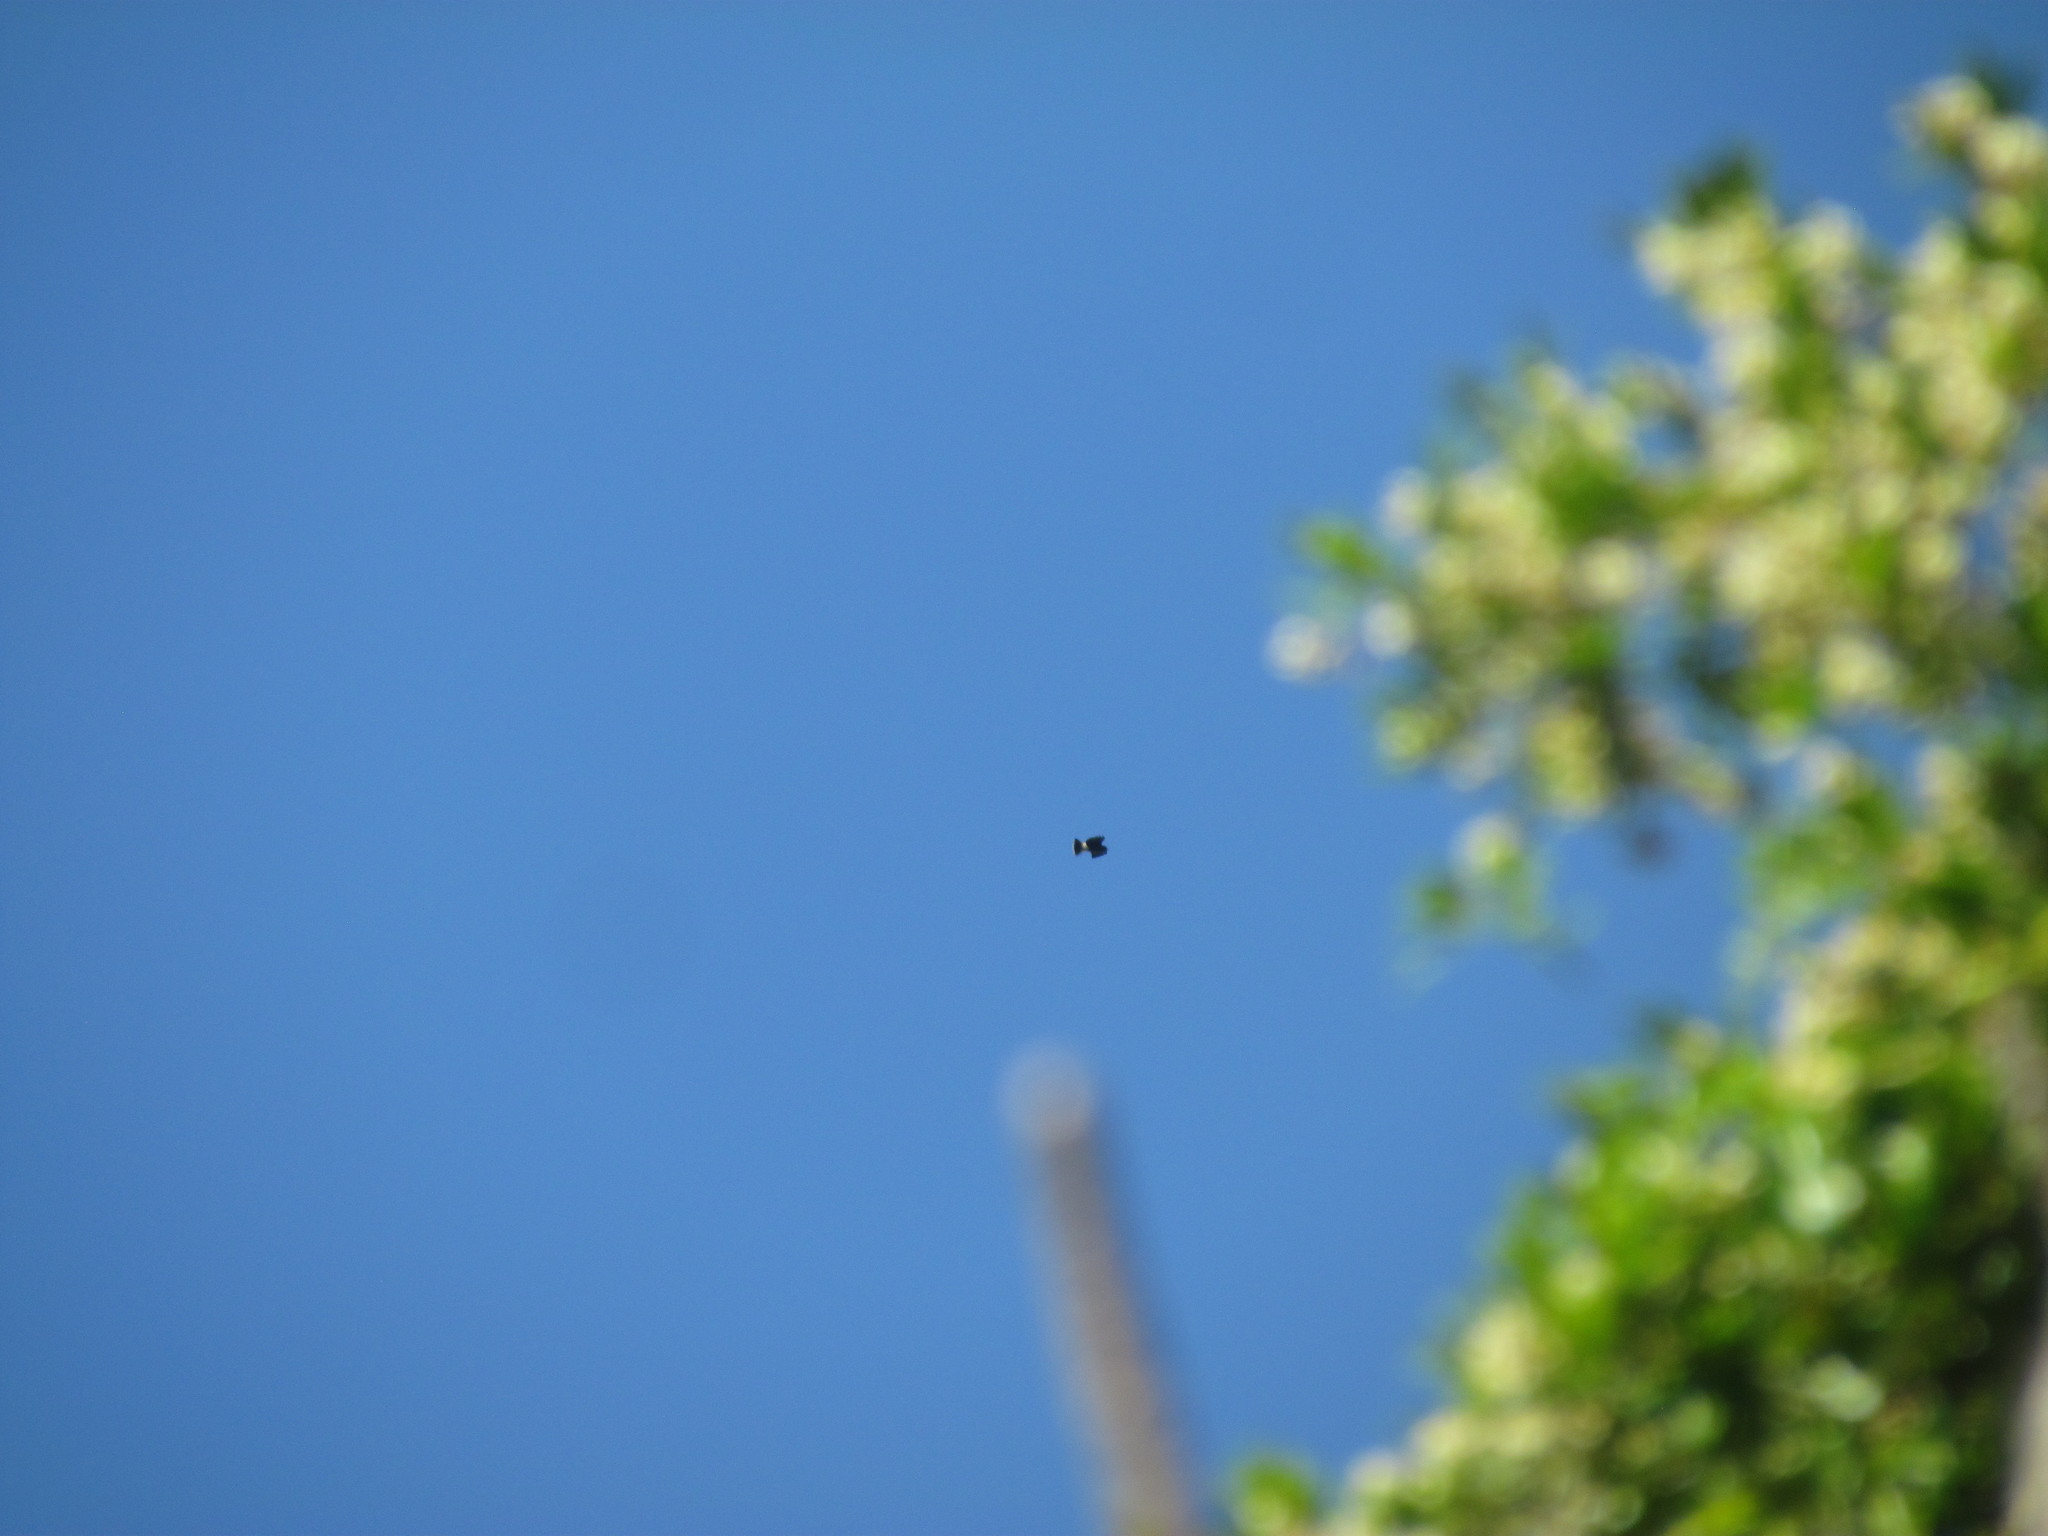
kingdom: Animalia
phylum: Chordata
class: Aves
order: Accipitriformes
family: Accipitridae
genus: Rostrhamus
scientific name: Rostrhamus sociabilis
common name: Snail kite
